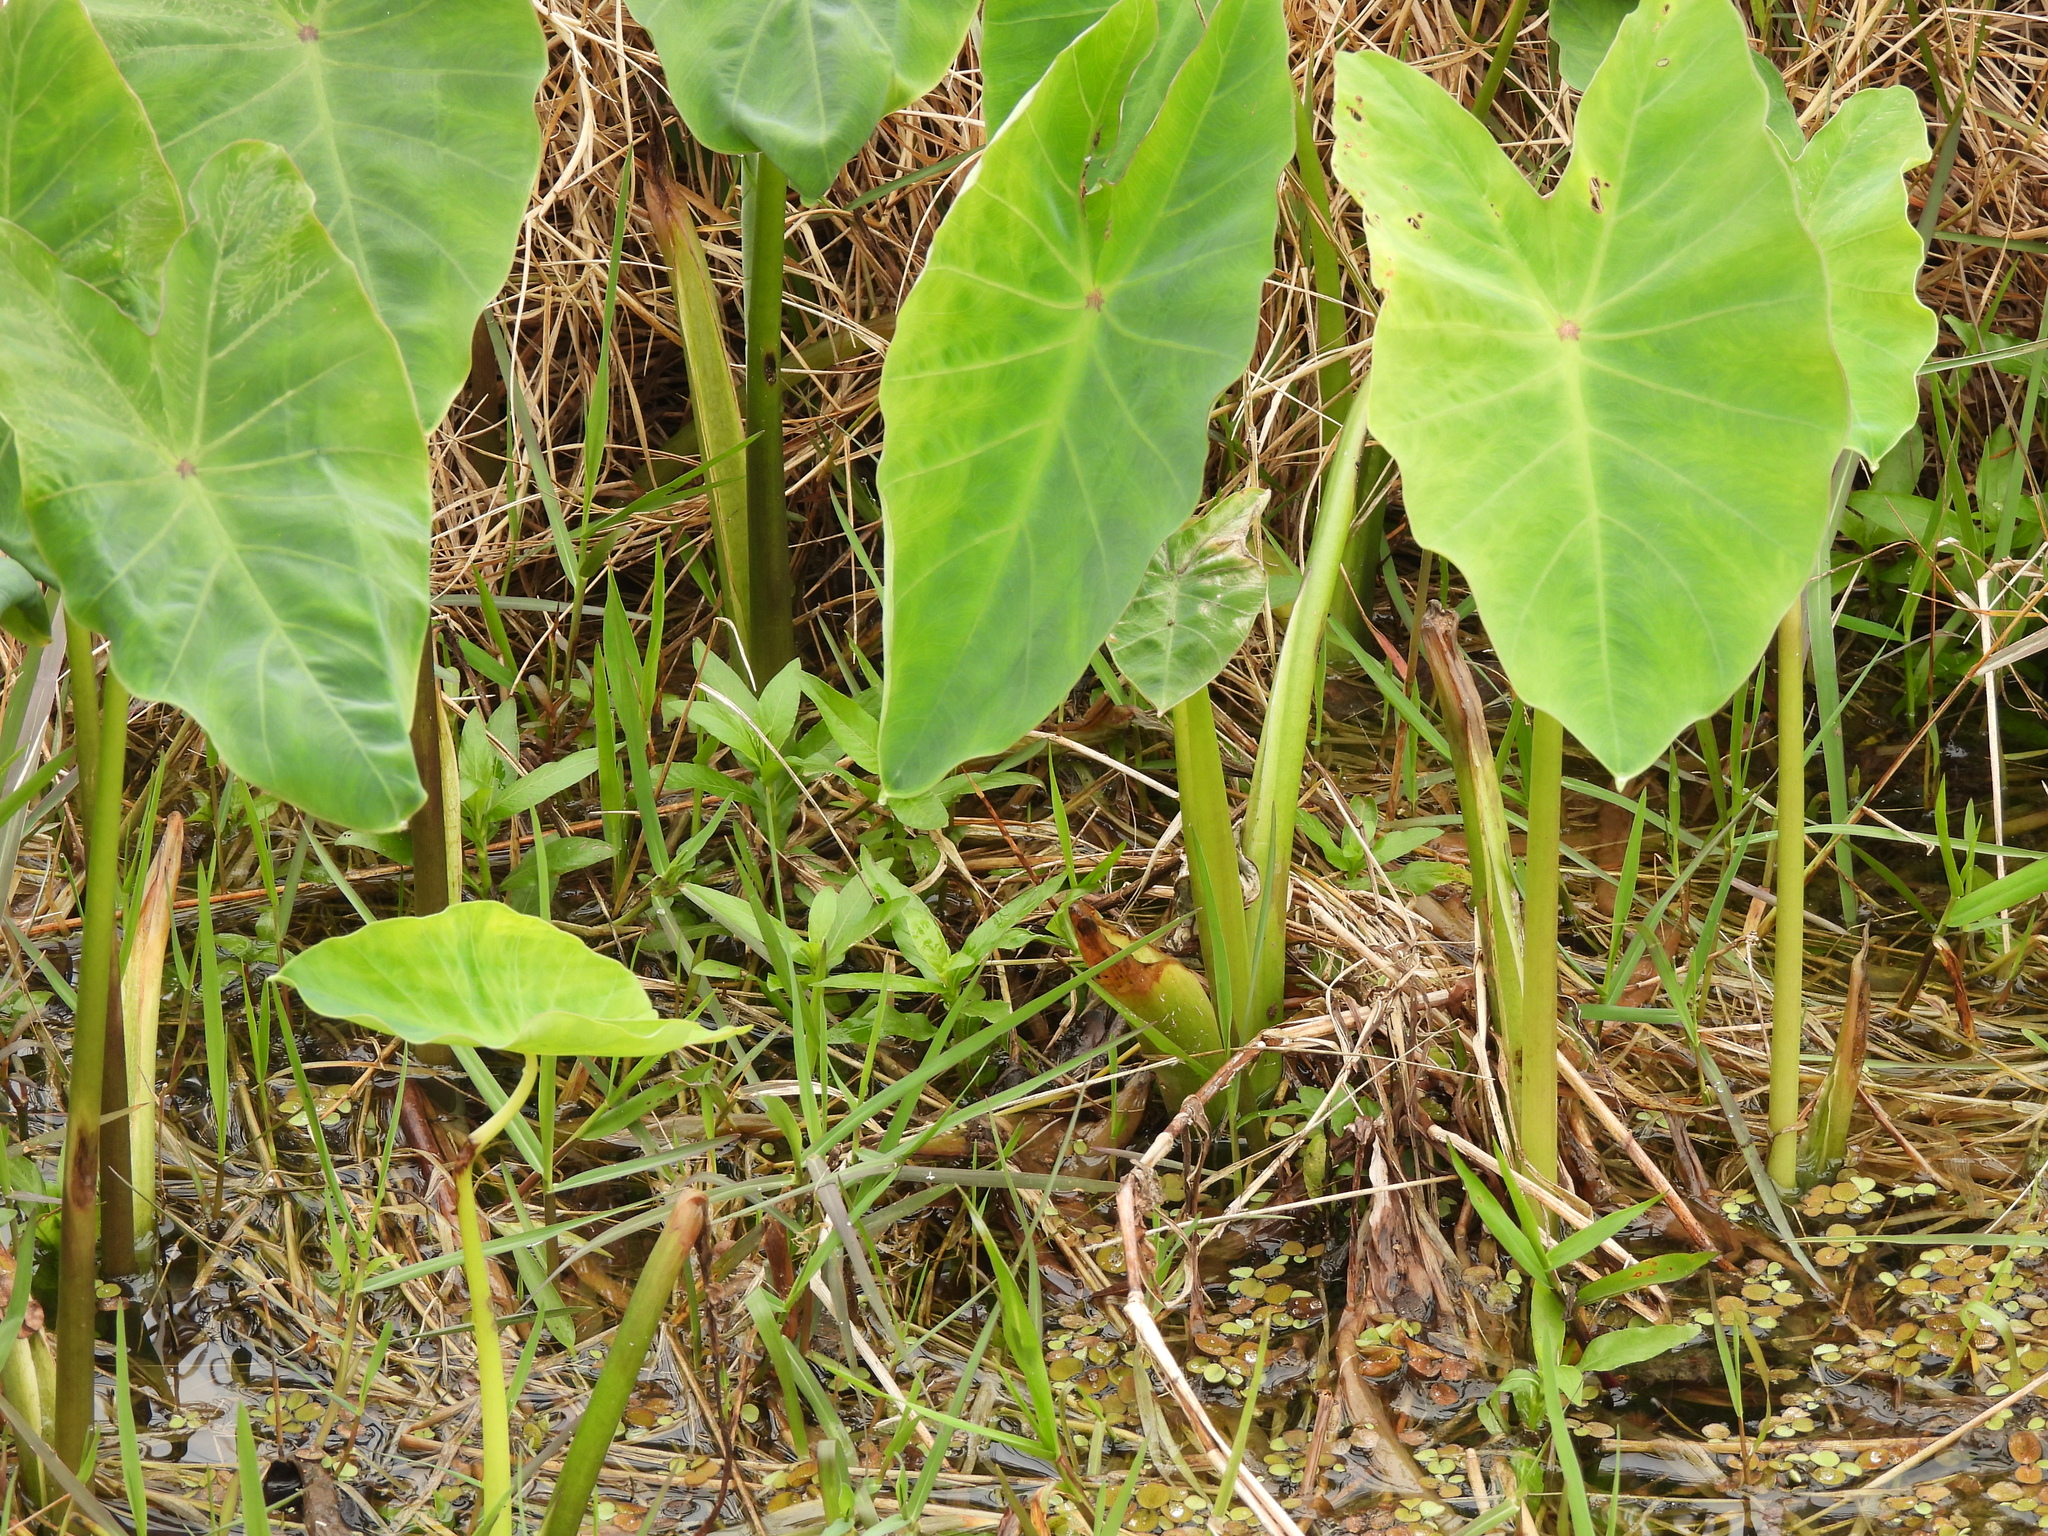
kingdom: Plantae
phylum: Tracheophyta
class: Liliopsida
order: Alismatales
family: Araceae
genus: Colocasia
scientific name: Colocasia esculenta
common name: Taro
